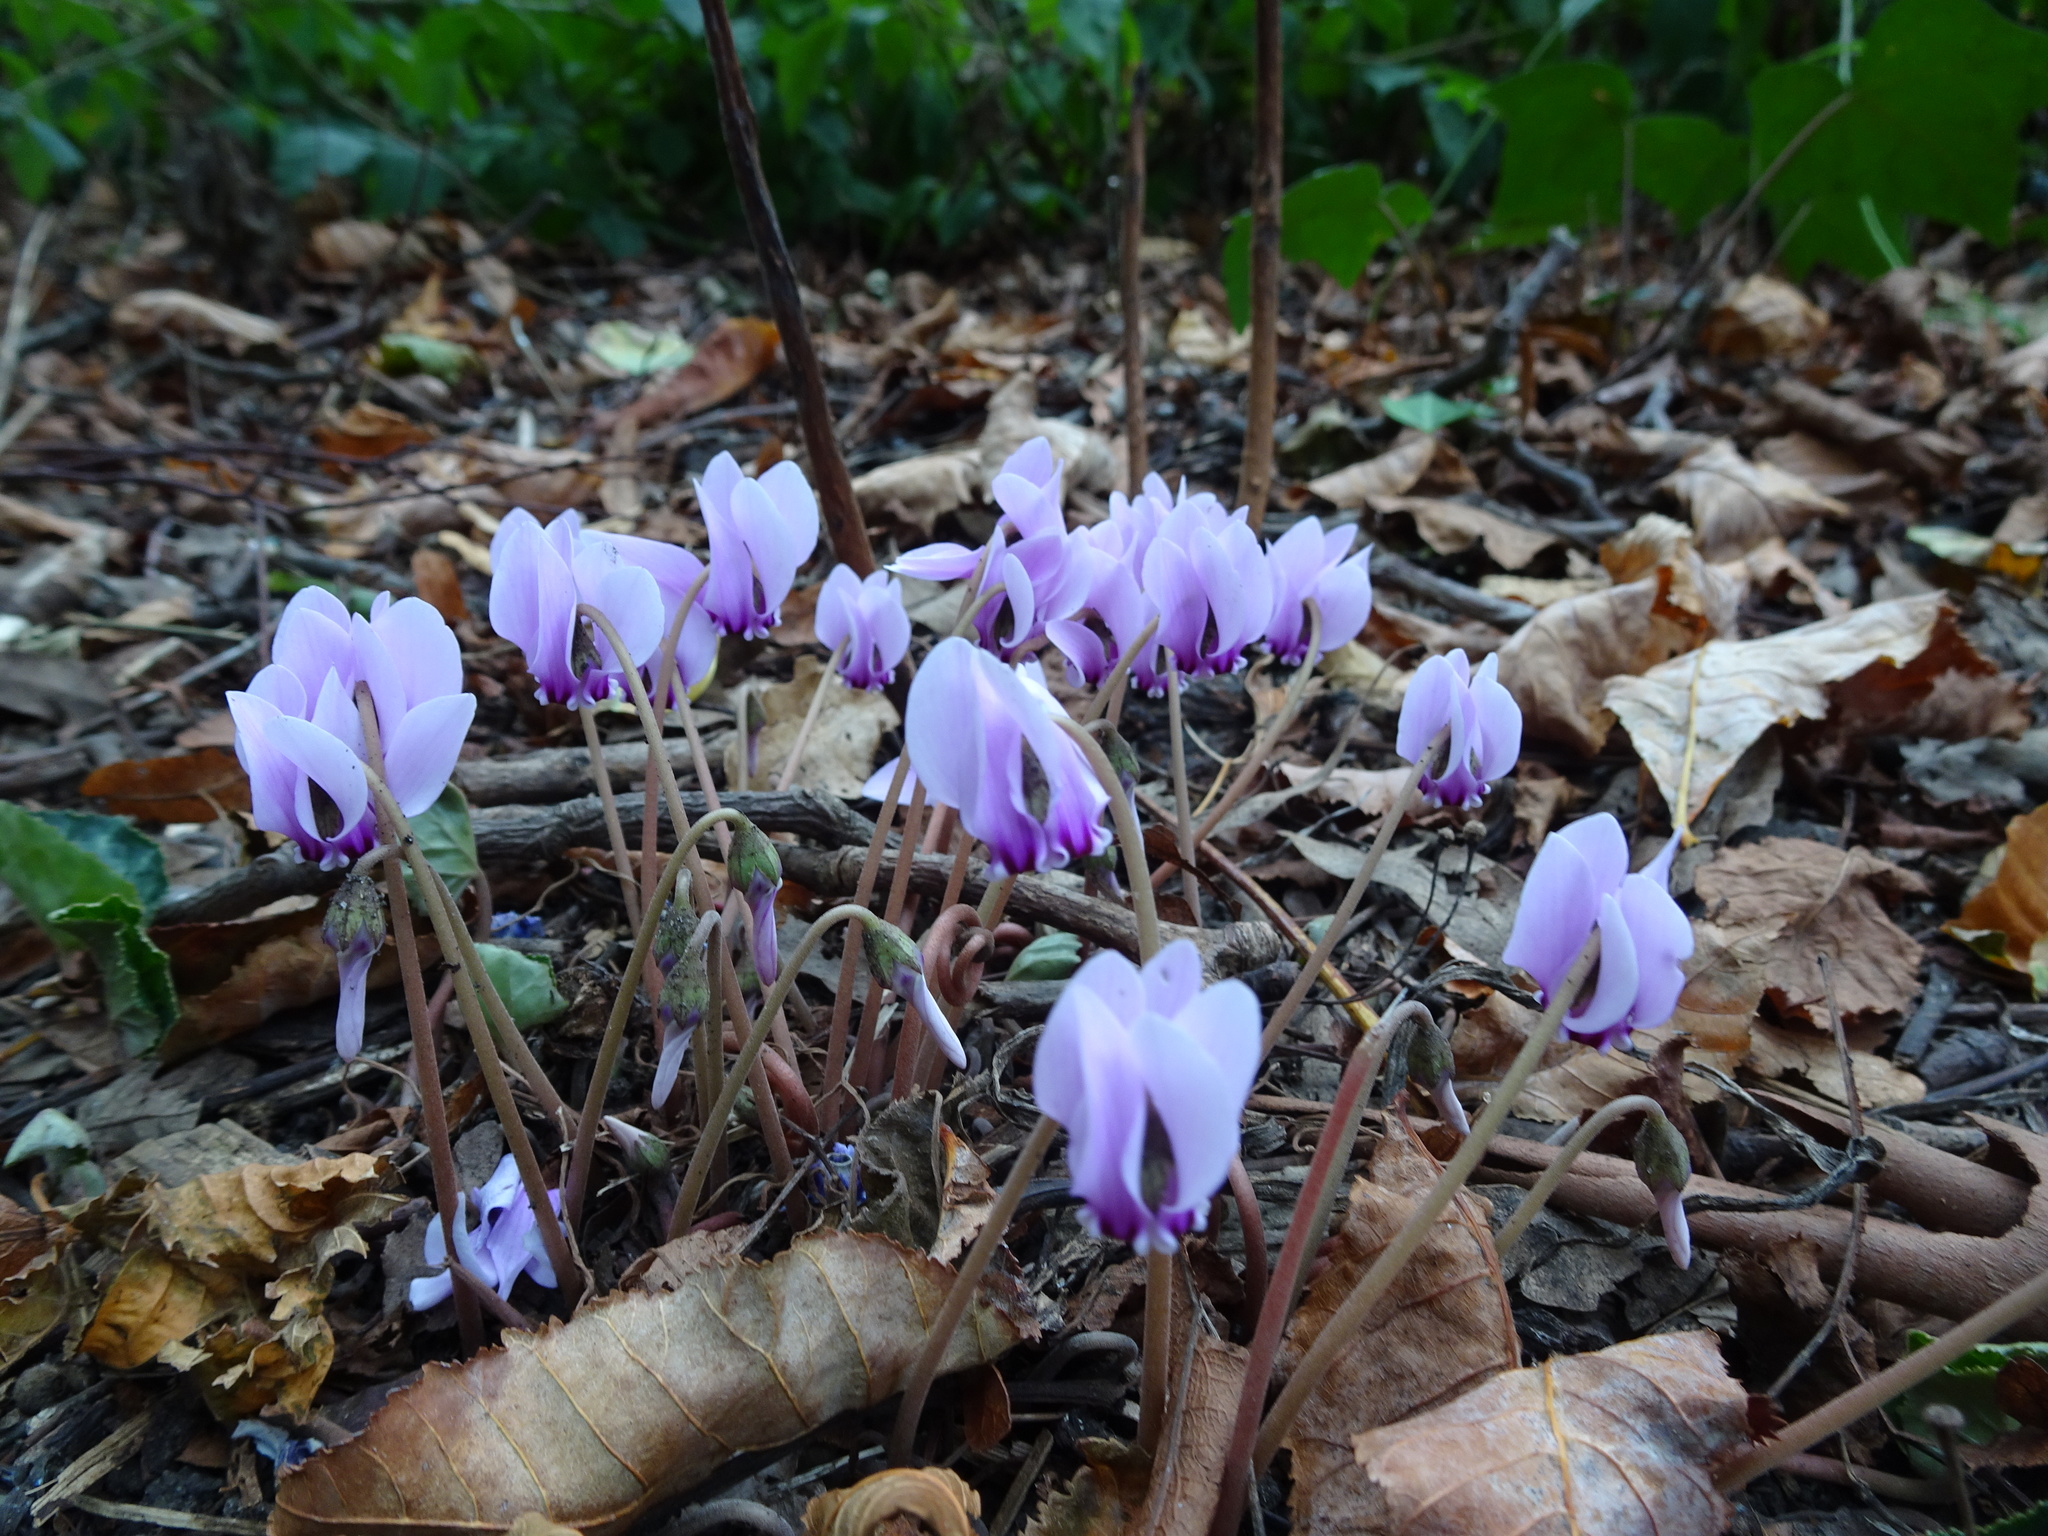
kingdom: Plantae
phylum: Tracheophyta
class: Magnoliopsida
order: Ericales
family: Primulaceae
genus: Cyclamen
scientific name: Cyclamen hederifolium
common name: Sowbread
